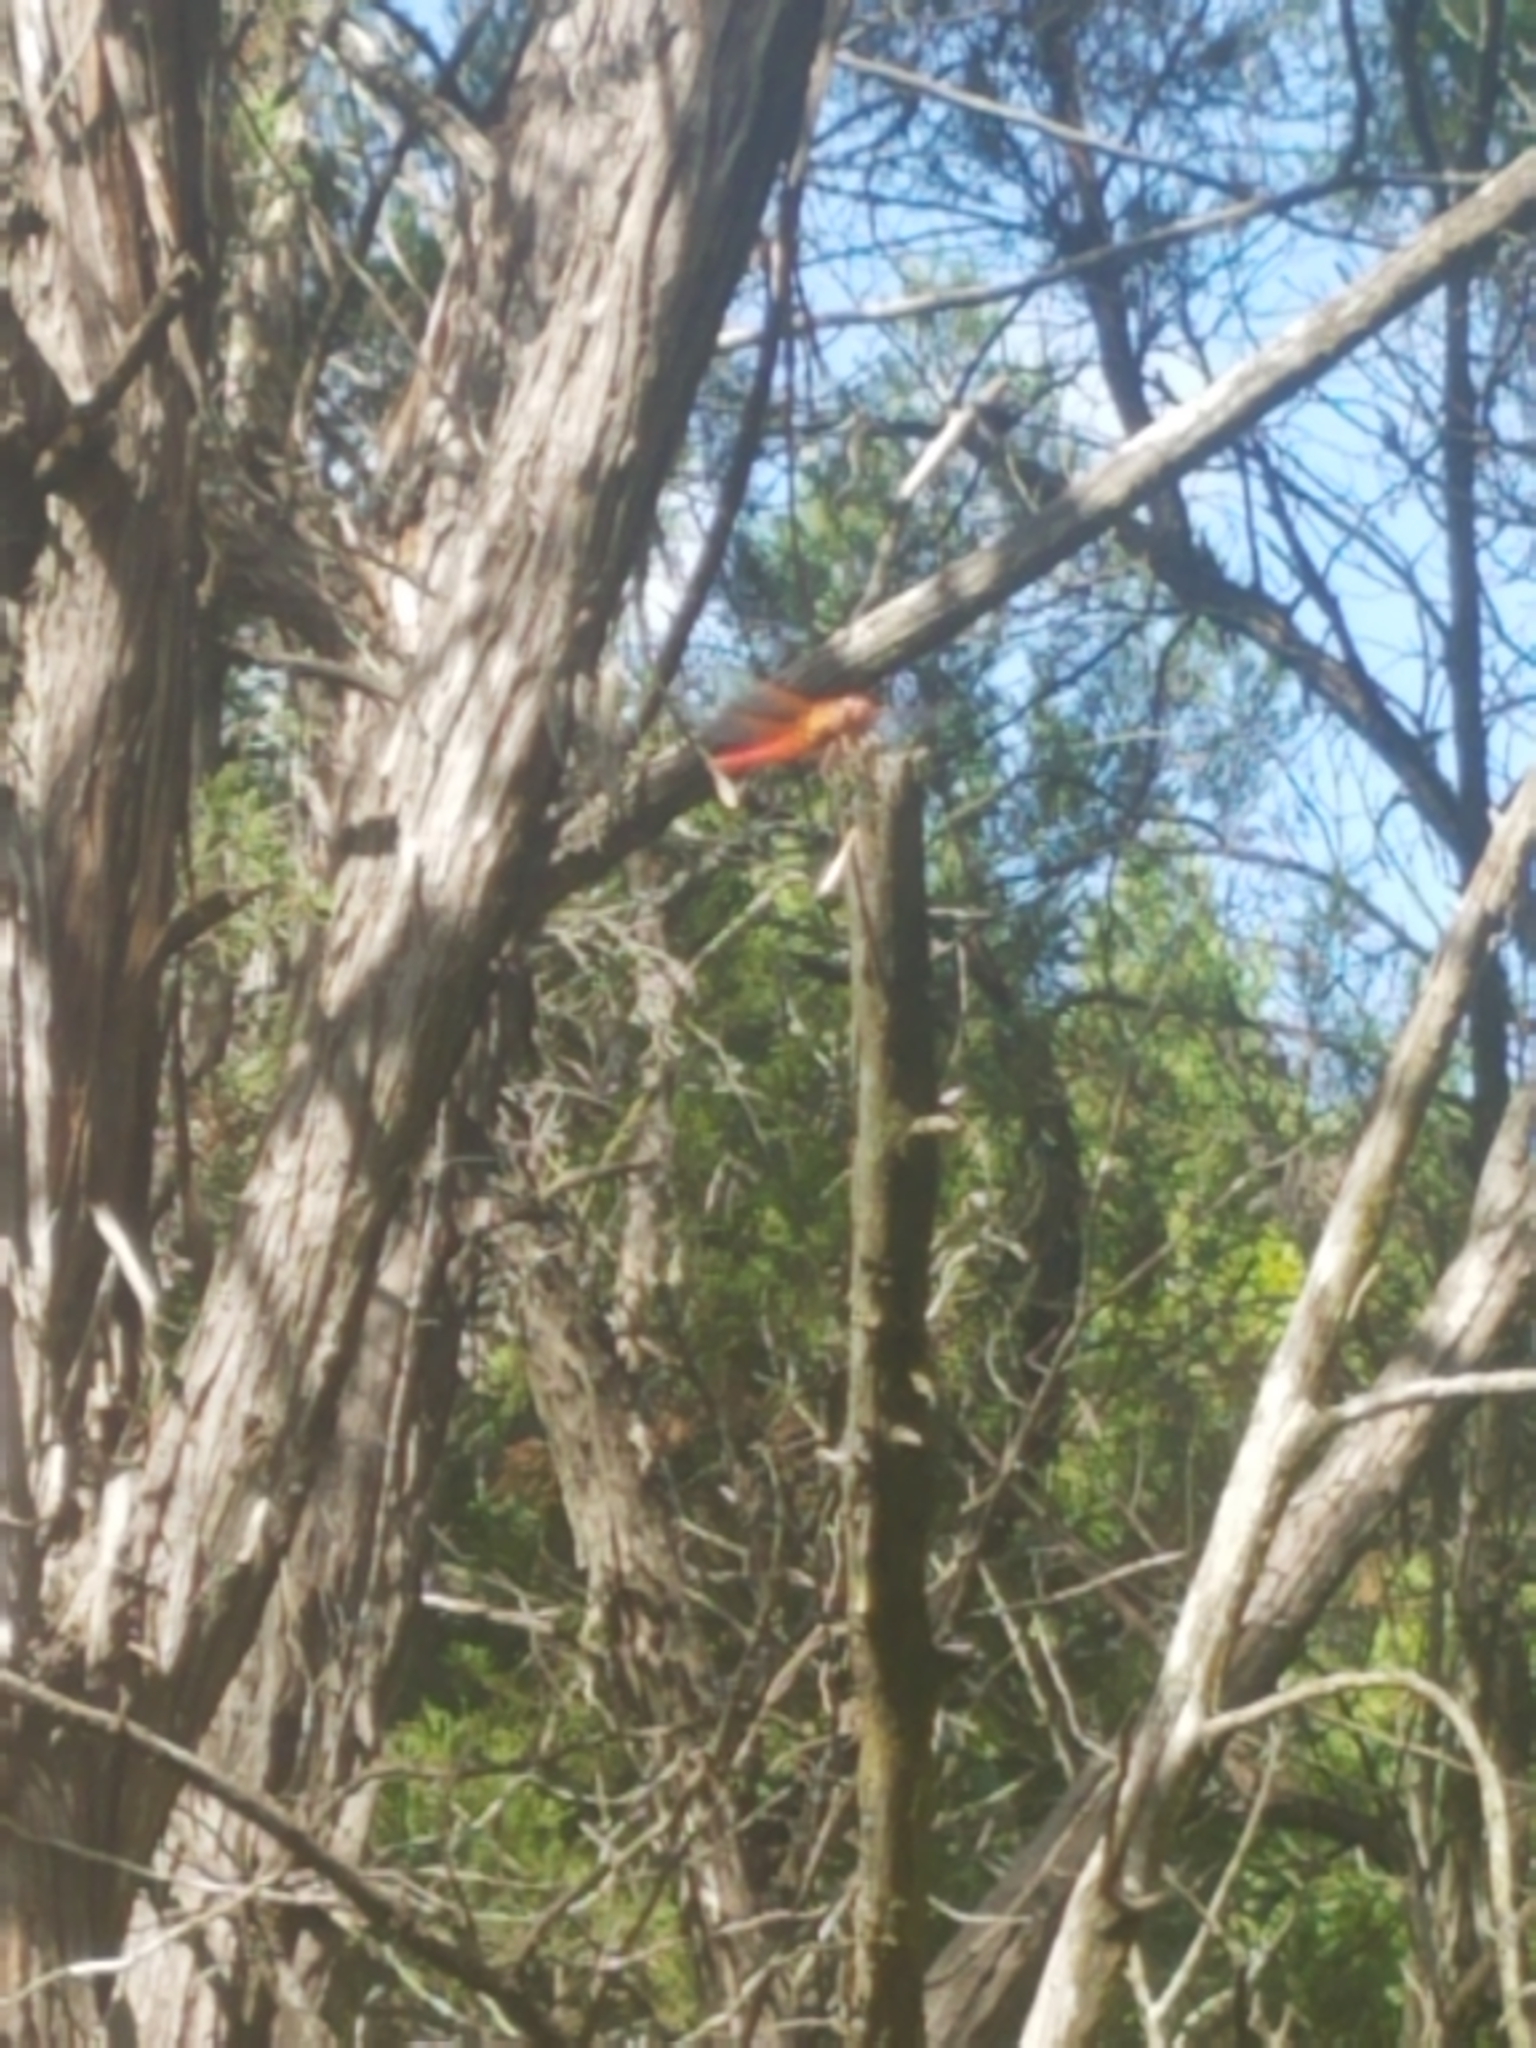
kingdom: Animalia
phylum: Arthropoda
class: Insecta
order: Odonata
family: Libellulidae
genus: Libellula
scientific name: Libellula croceipennis
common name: Neon skimmer
